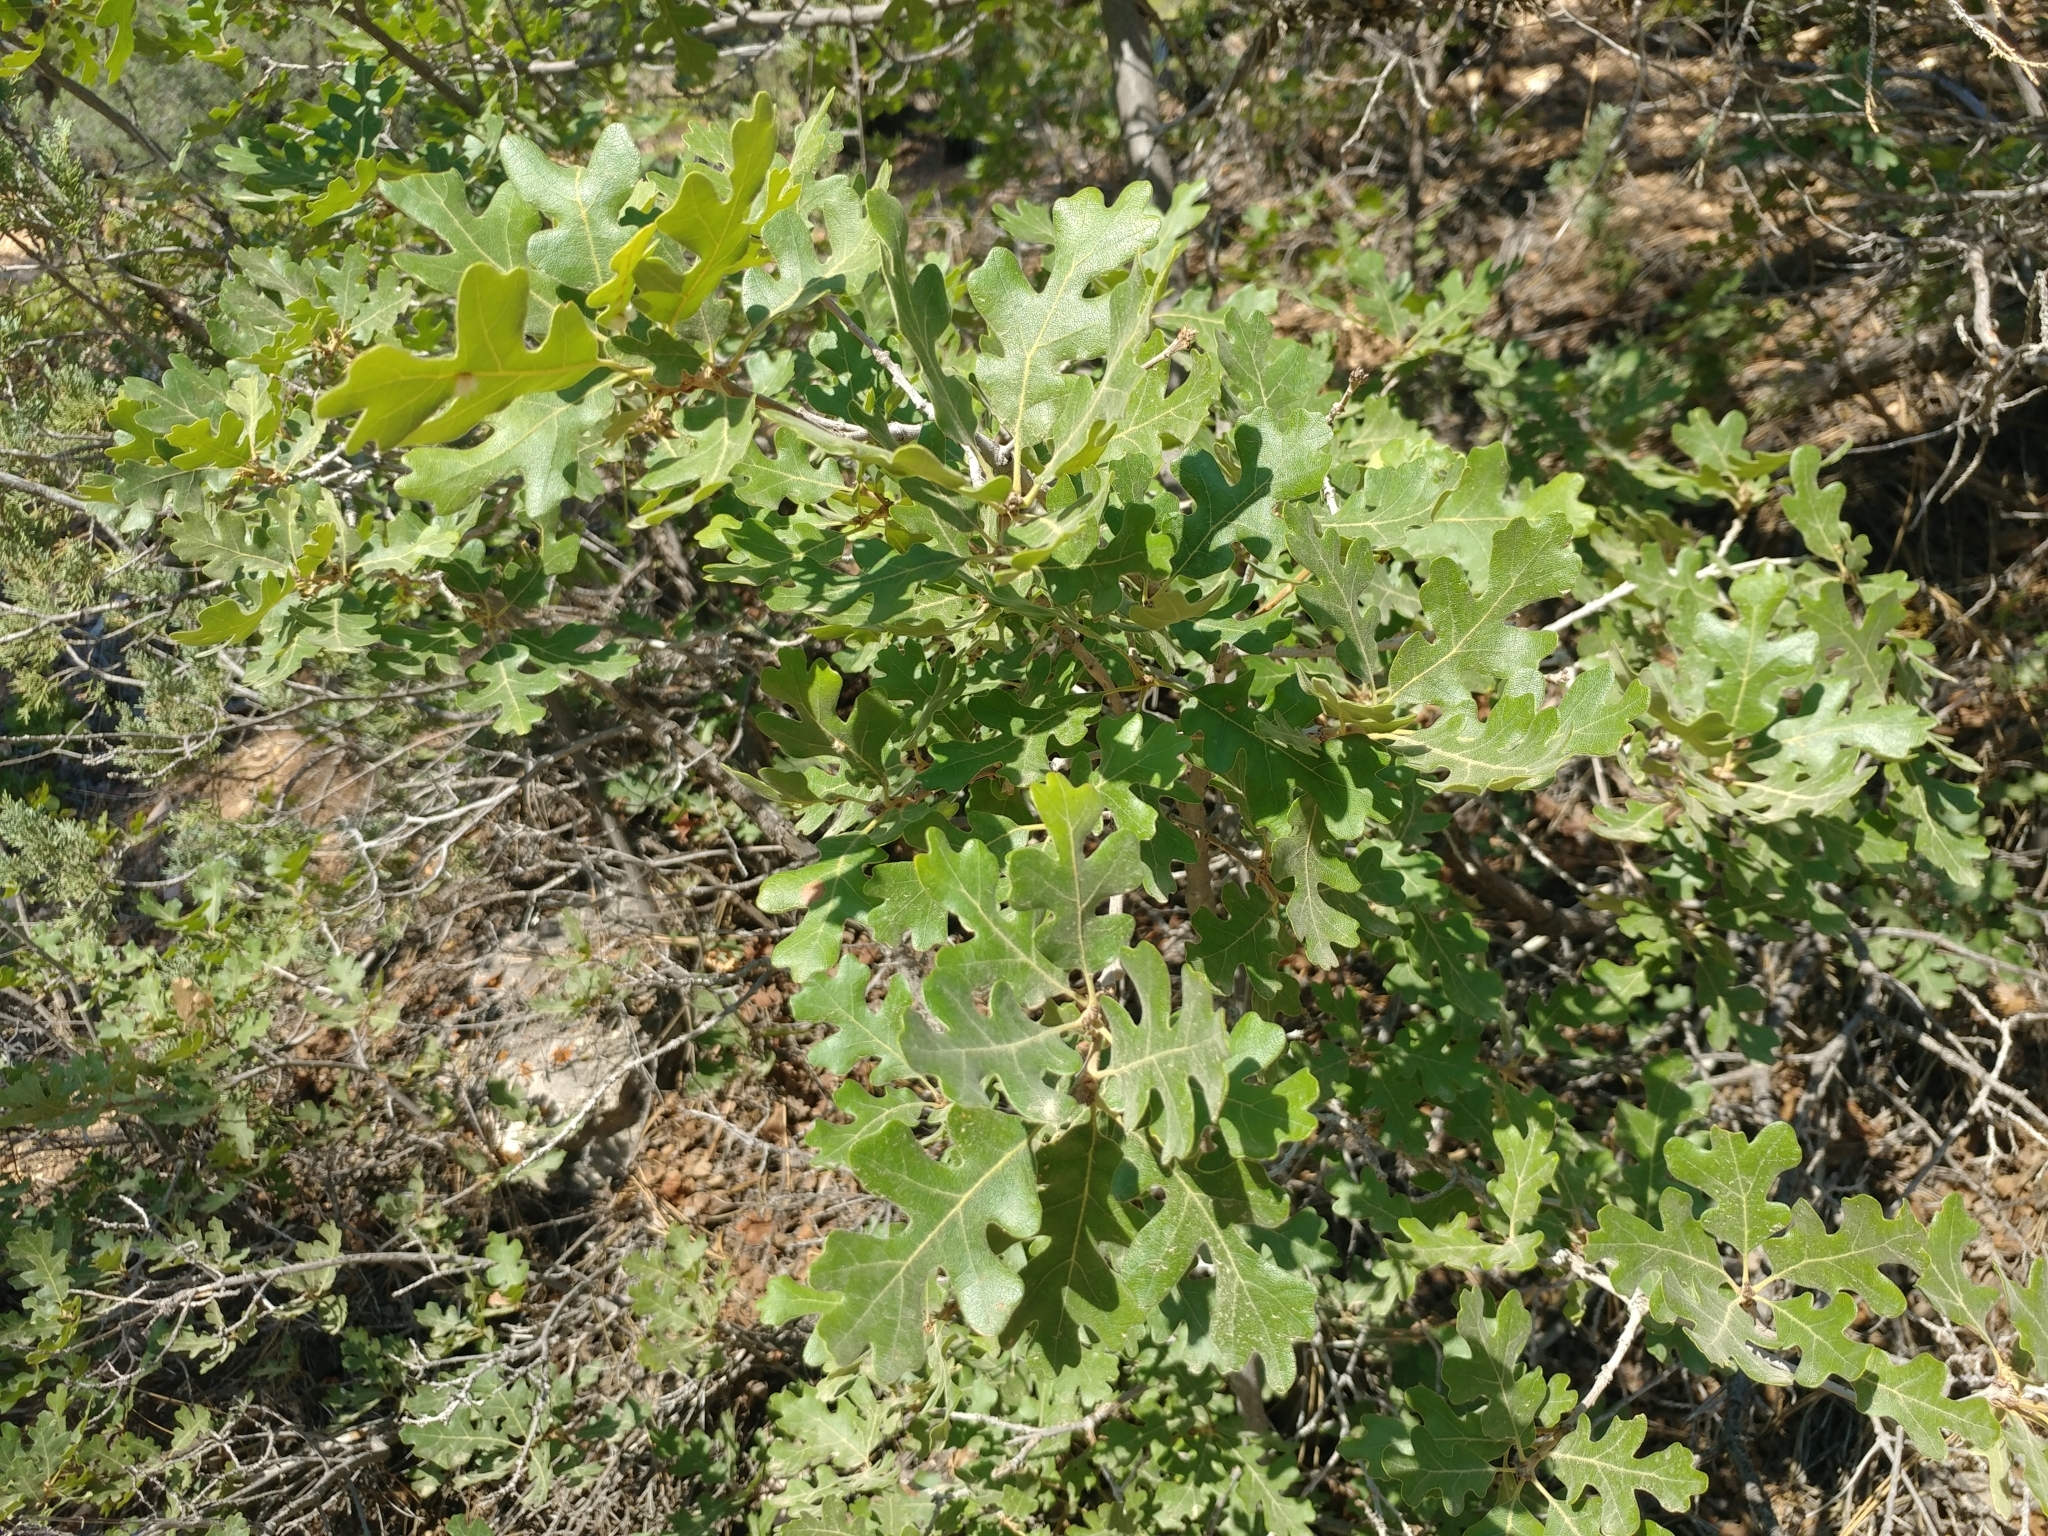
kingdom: Plantae
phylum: Tracheophyta
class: Magnoliopsida
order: Fagales
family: Fagaceae
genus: Quercus
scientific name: Quercus gambelii
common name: Gambel oak
